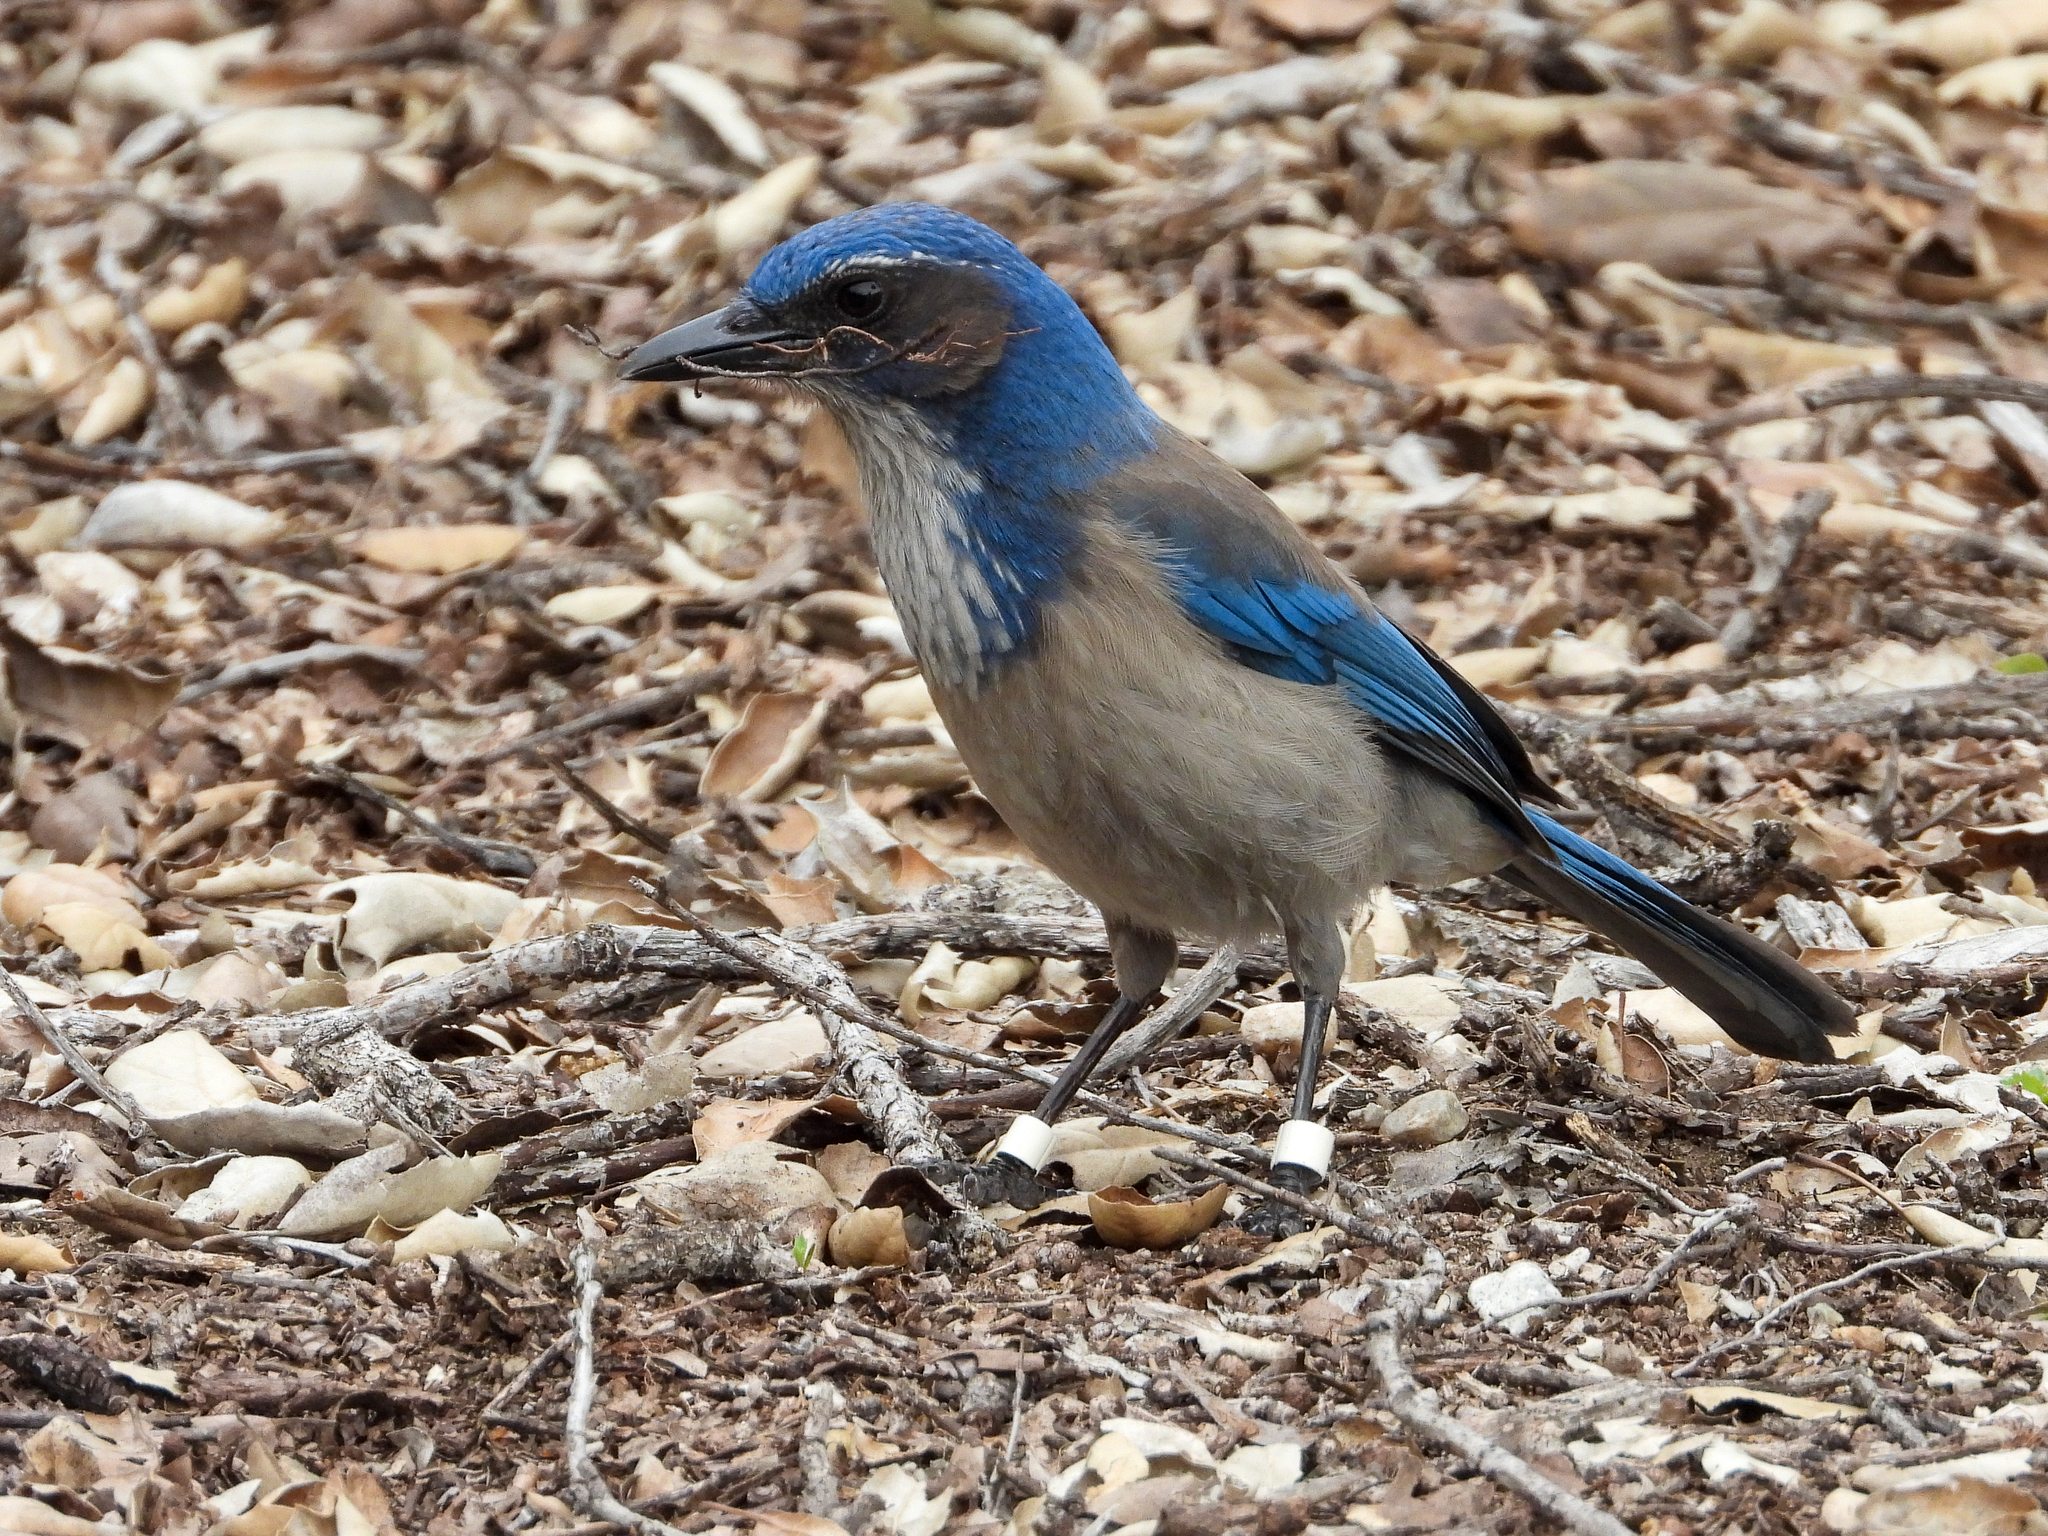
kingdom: Animalia
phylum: Chordata
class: Aves
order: Passeriformes
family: Corvidae
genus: Aphelocoma
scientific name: Aphelocoma californica
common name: California scrub-jay
